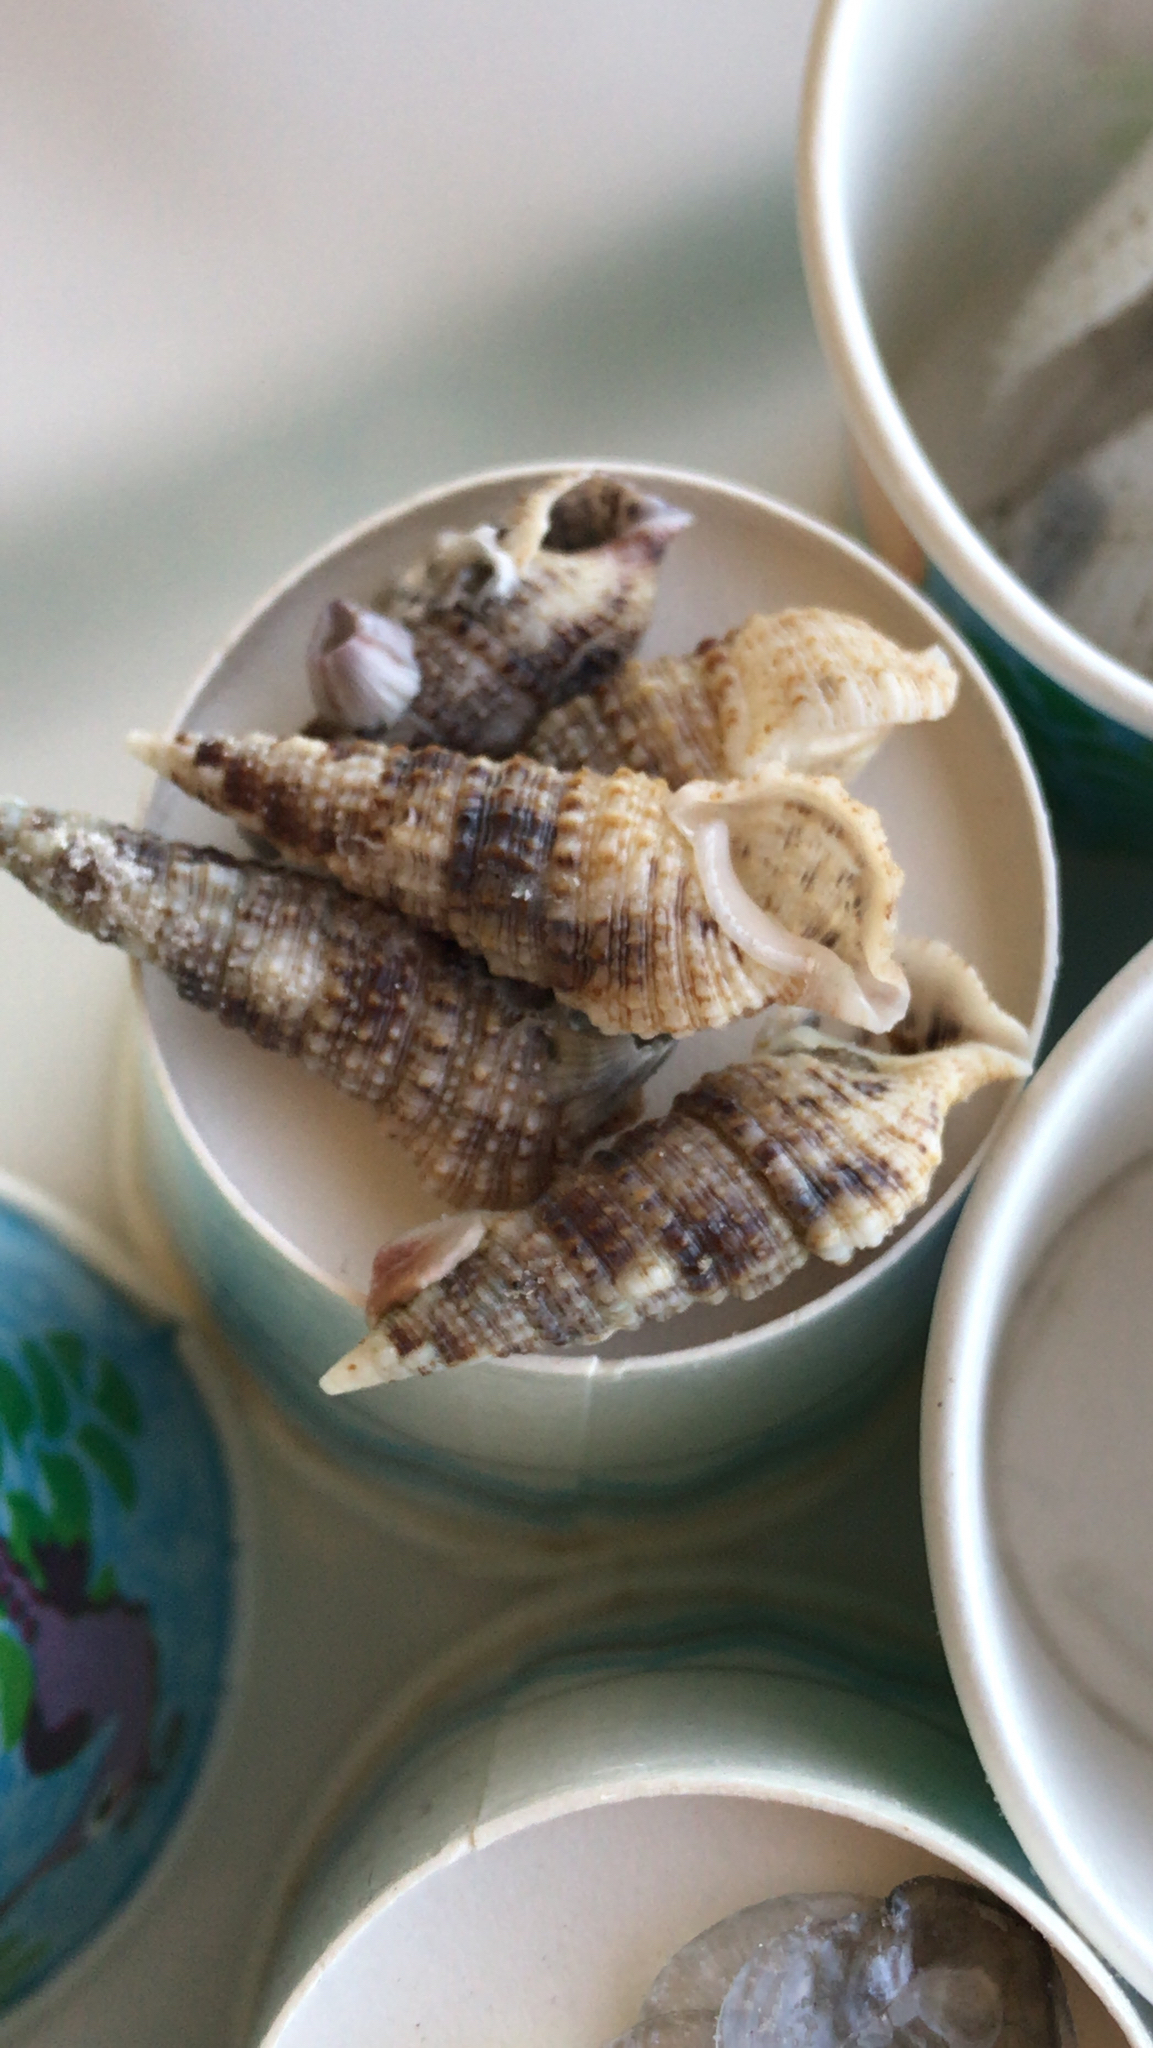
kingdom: Animalia
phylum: Mollusca
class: Gastropoda
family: Cerithiidae
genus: Cerithium
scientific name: Cerithium atratum
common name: Dark cerith
